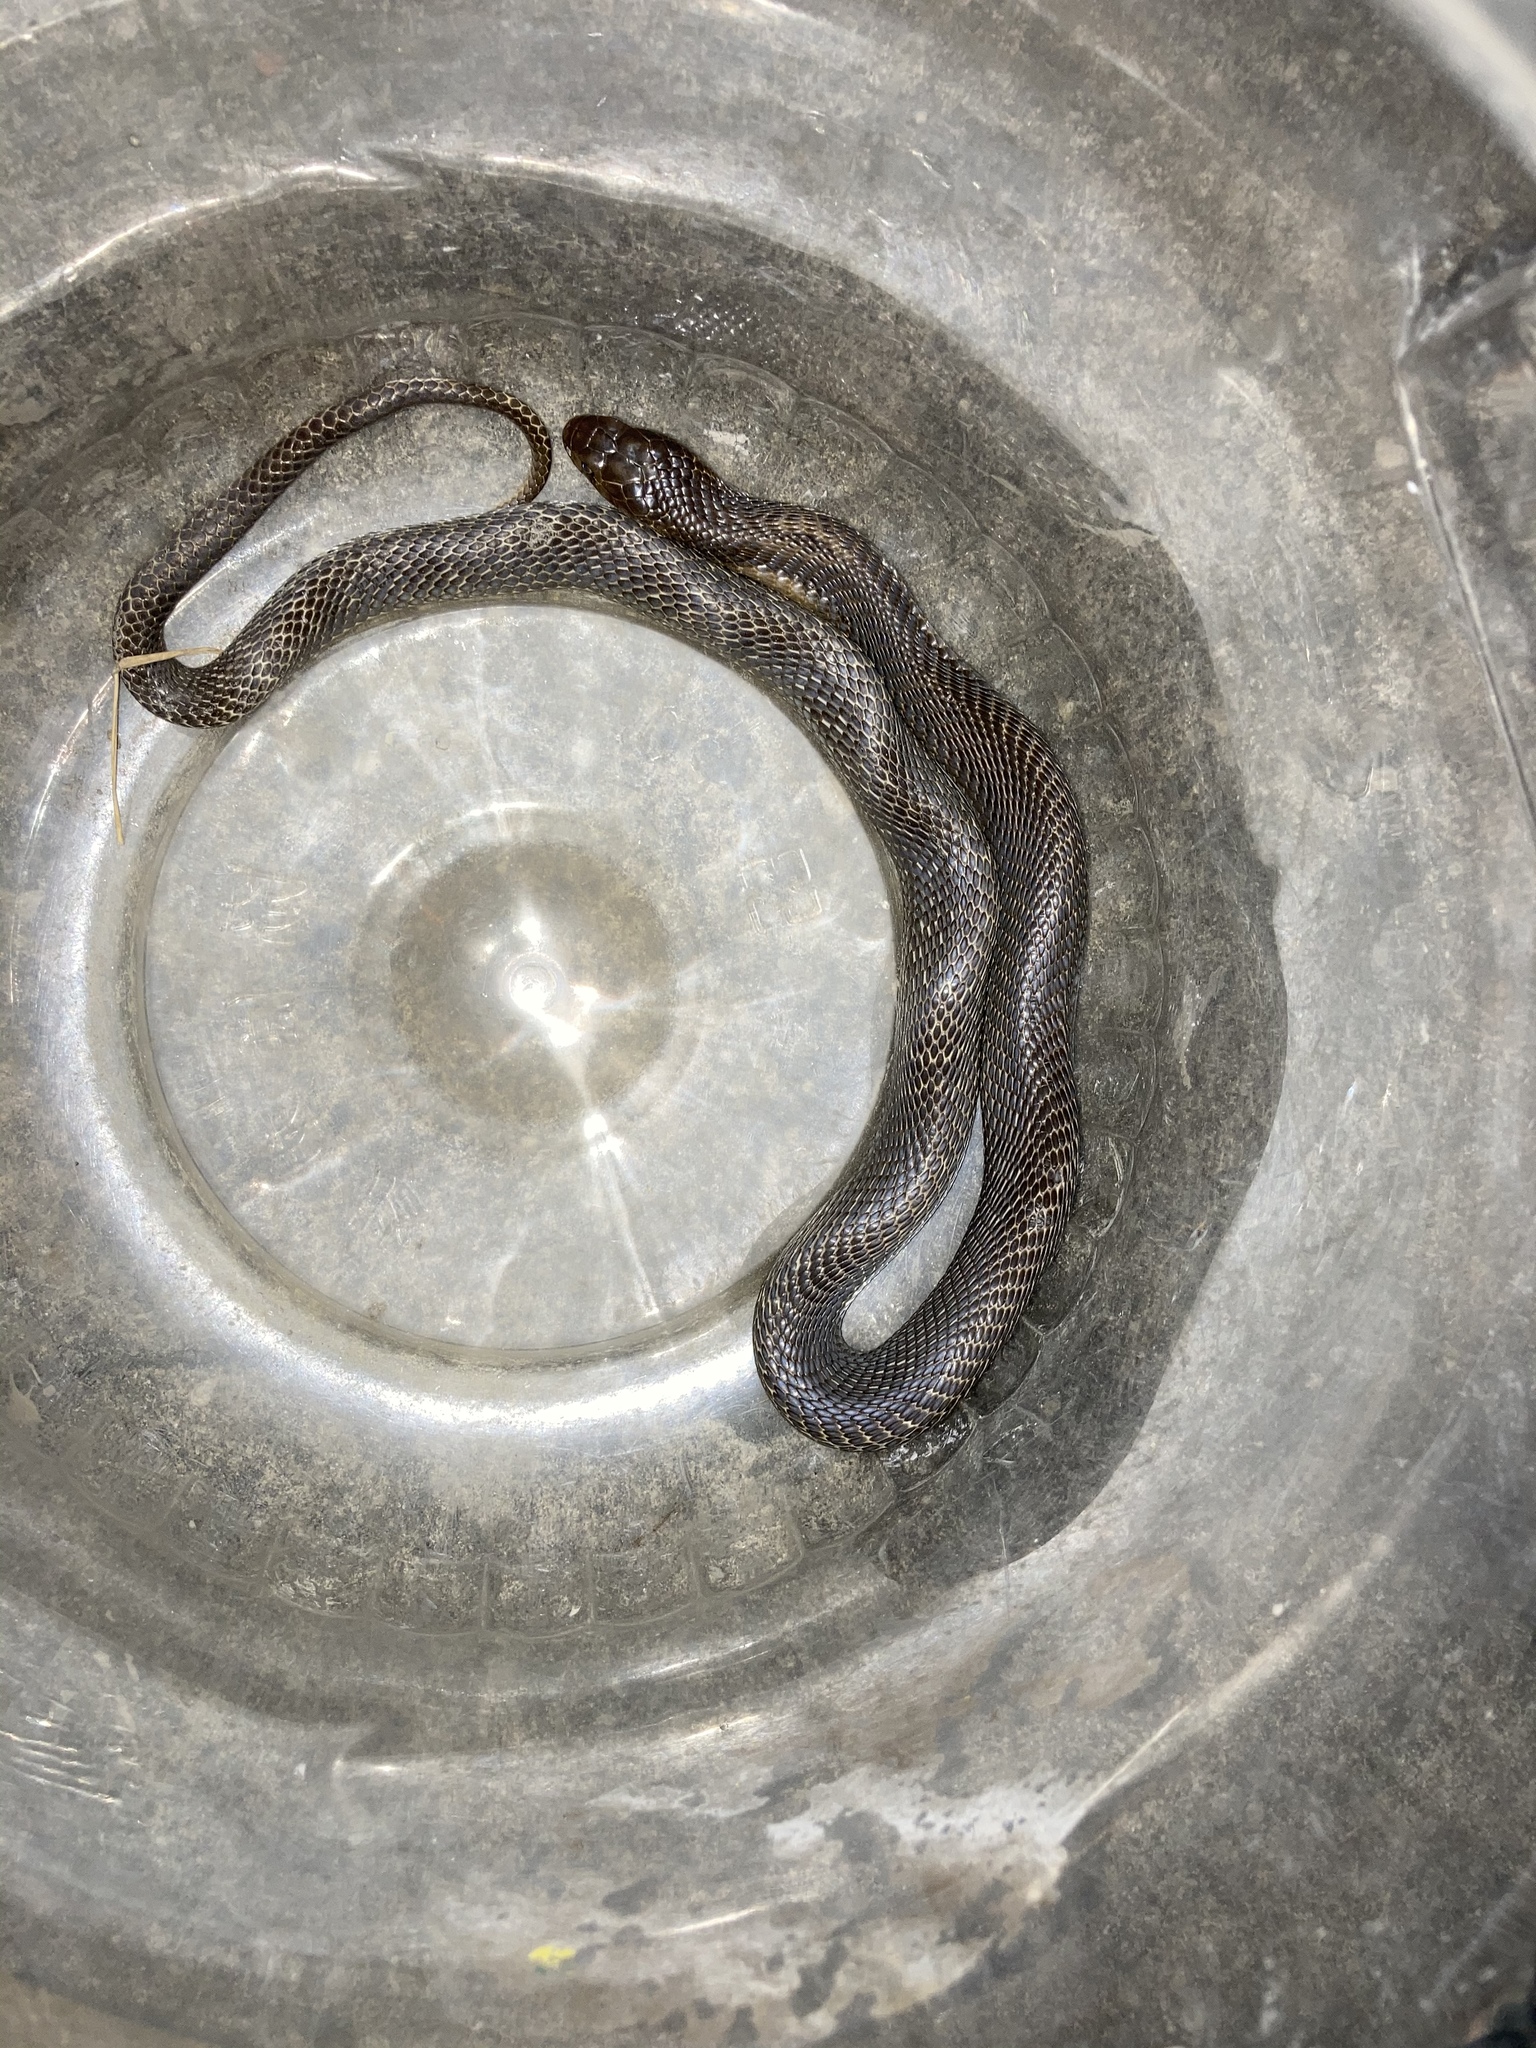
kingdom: Animalia
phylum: Chordata
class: Squamata
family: Elapidae
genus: Naja
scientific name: Naja atra
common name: Chinese cobra
